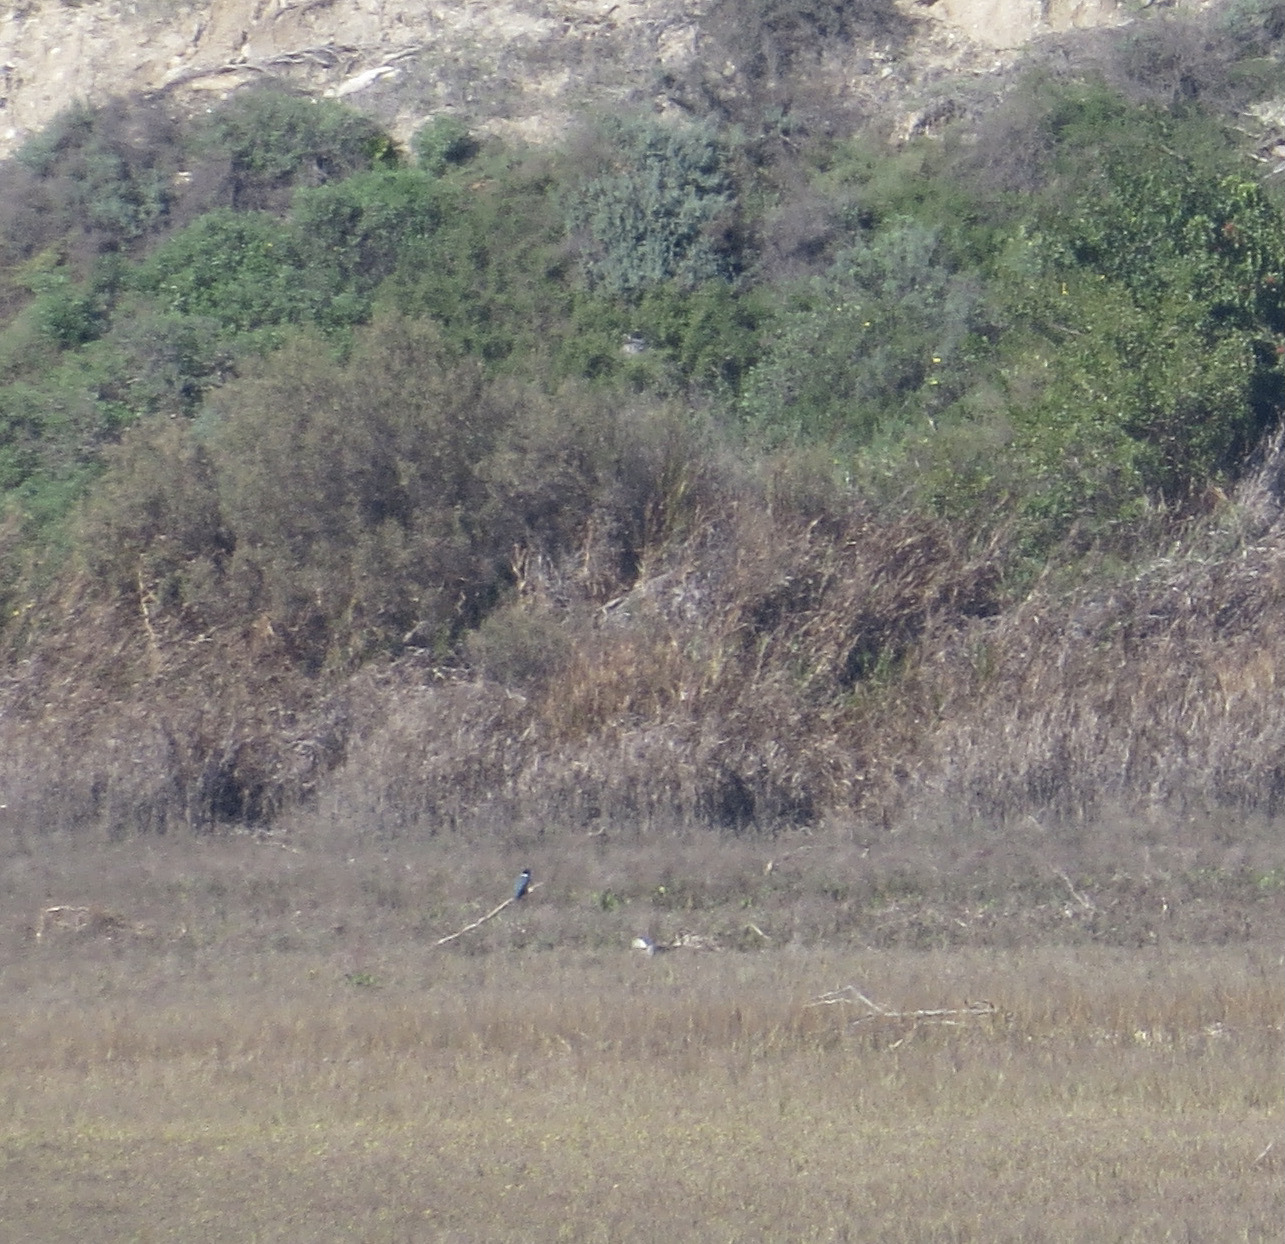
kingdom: Animalia
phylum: Chordata
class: Aves
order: Coraciiformes
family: Alcedinidae
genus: Megaceryle
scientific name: Megaceryle alcyon
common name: Belted kingfisher
